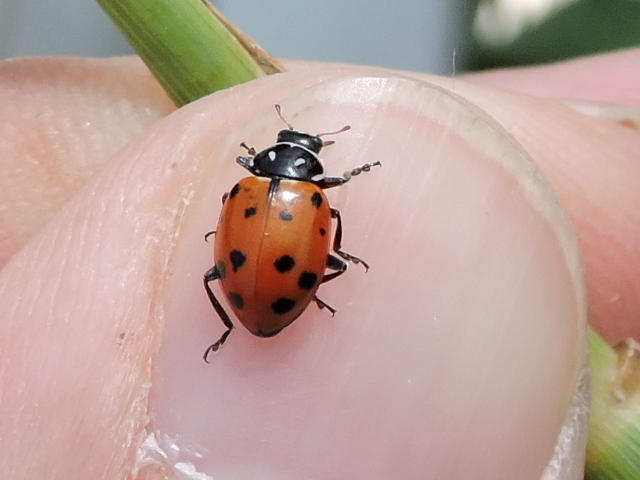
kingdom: Animalia
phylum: Arthropoda
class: Insecta
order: Coleoptera
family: Coccinellidae
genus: Hippodamia
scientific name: Hippodamia convergens
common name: Convergent lady beetle
